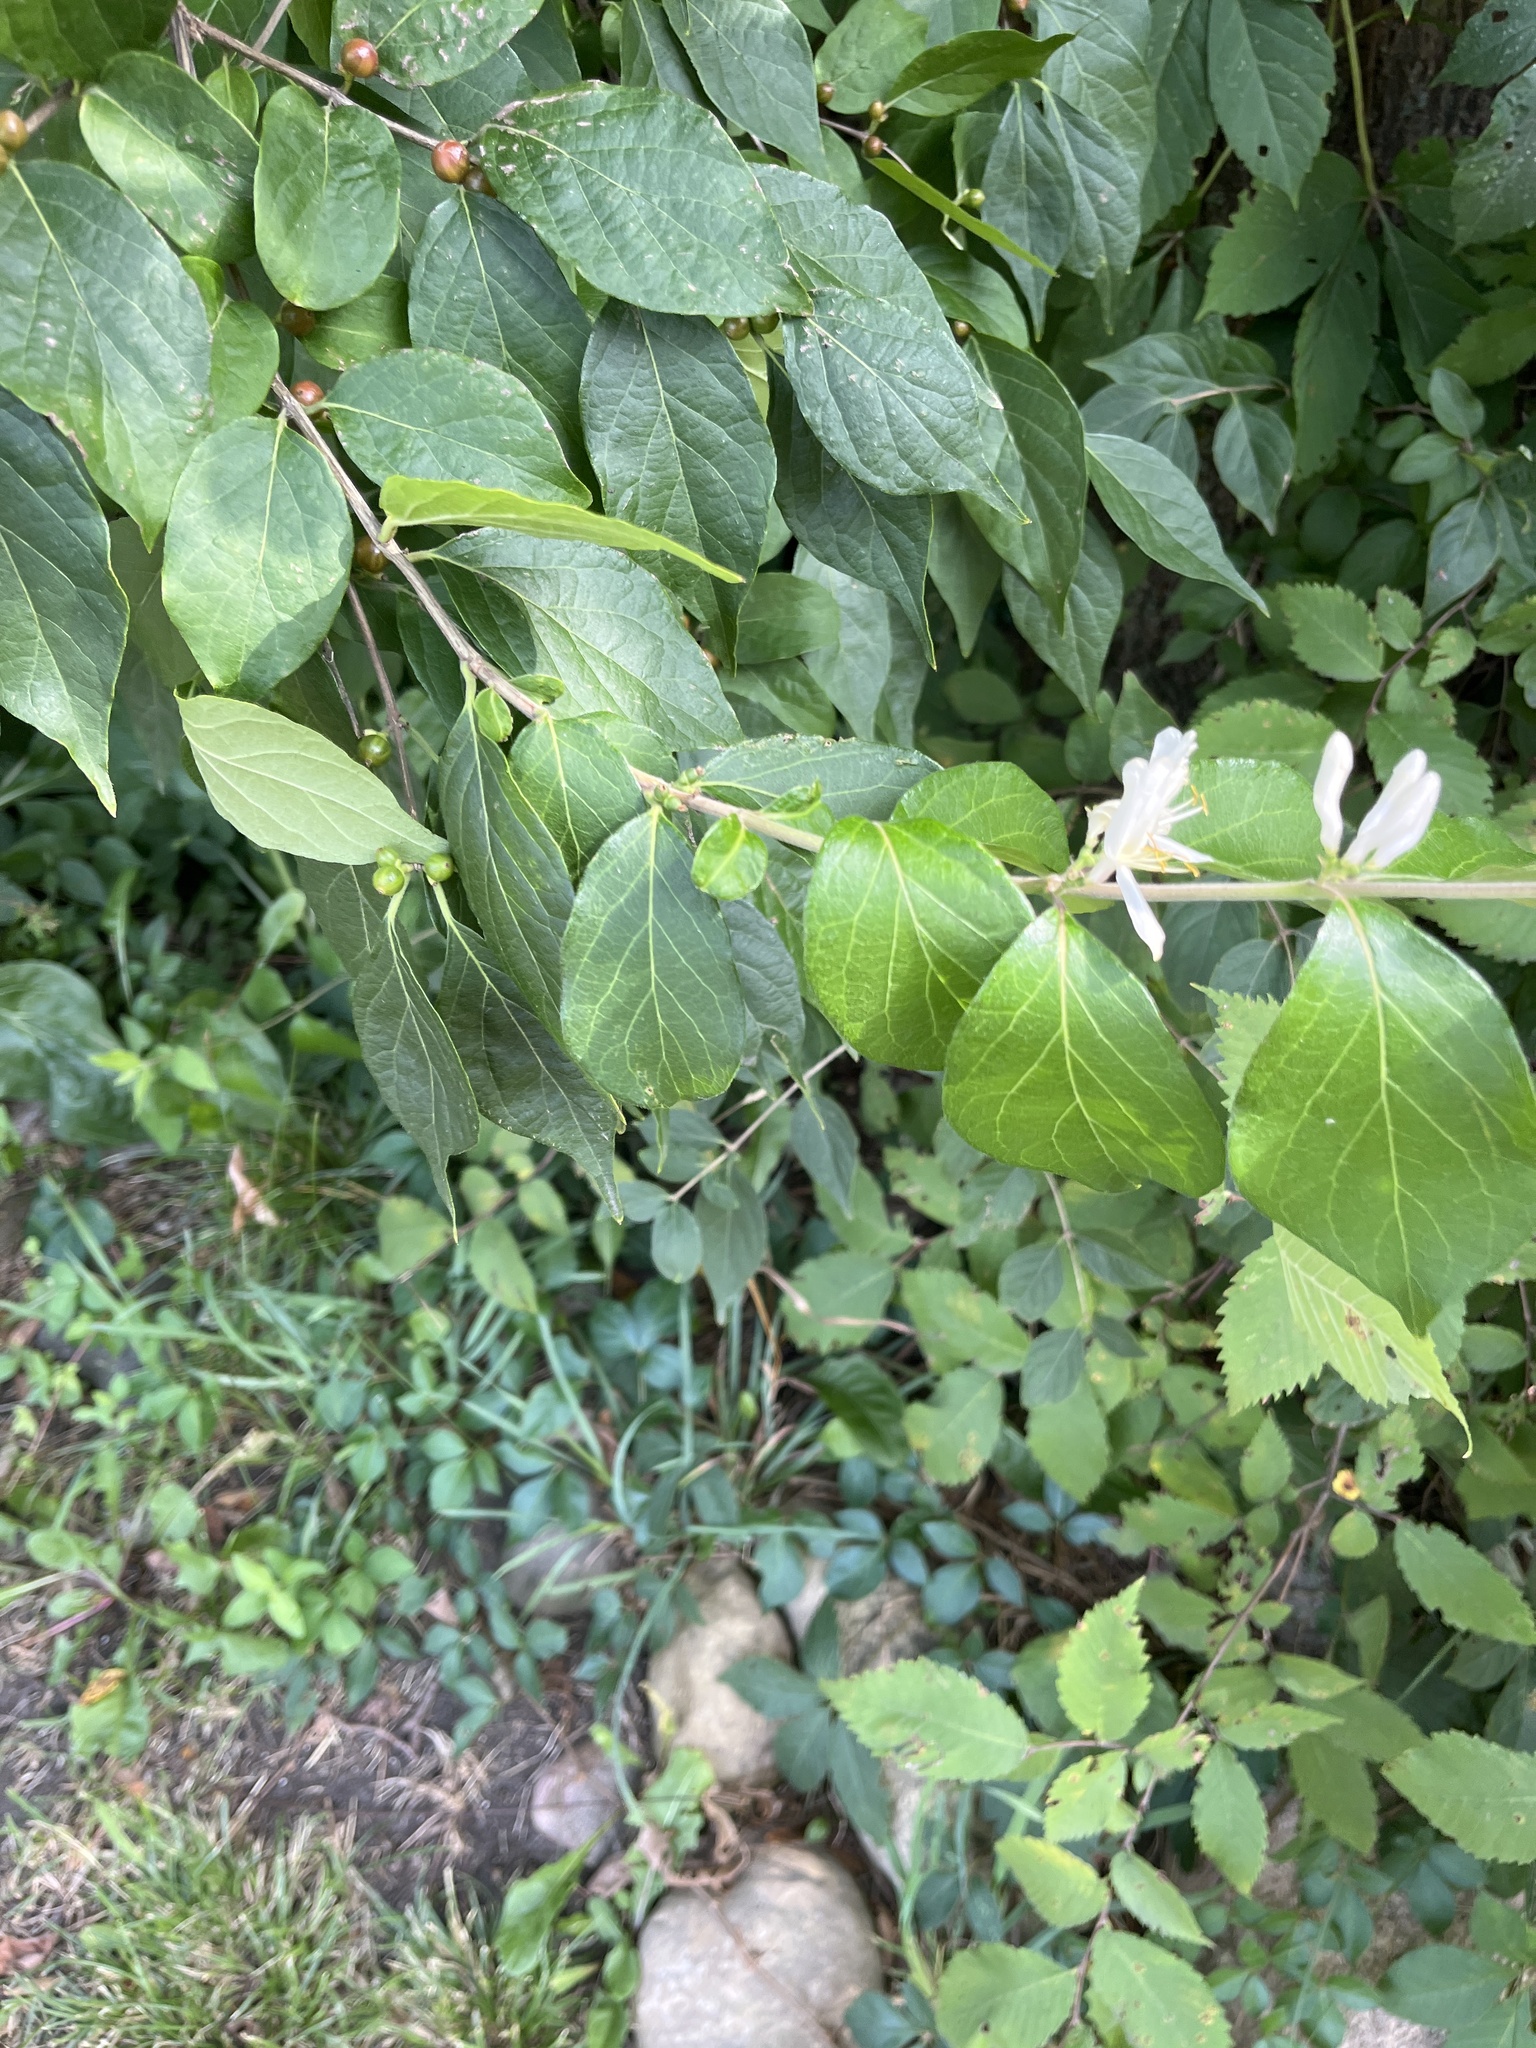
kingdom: Plantae
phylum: Tracheophyta
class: Magnoliopsida
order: Dipsacales
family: Caprifoliaceae
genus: Lonicera
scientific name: Lonicera maackii
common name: Amur honeysuckle
